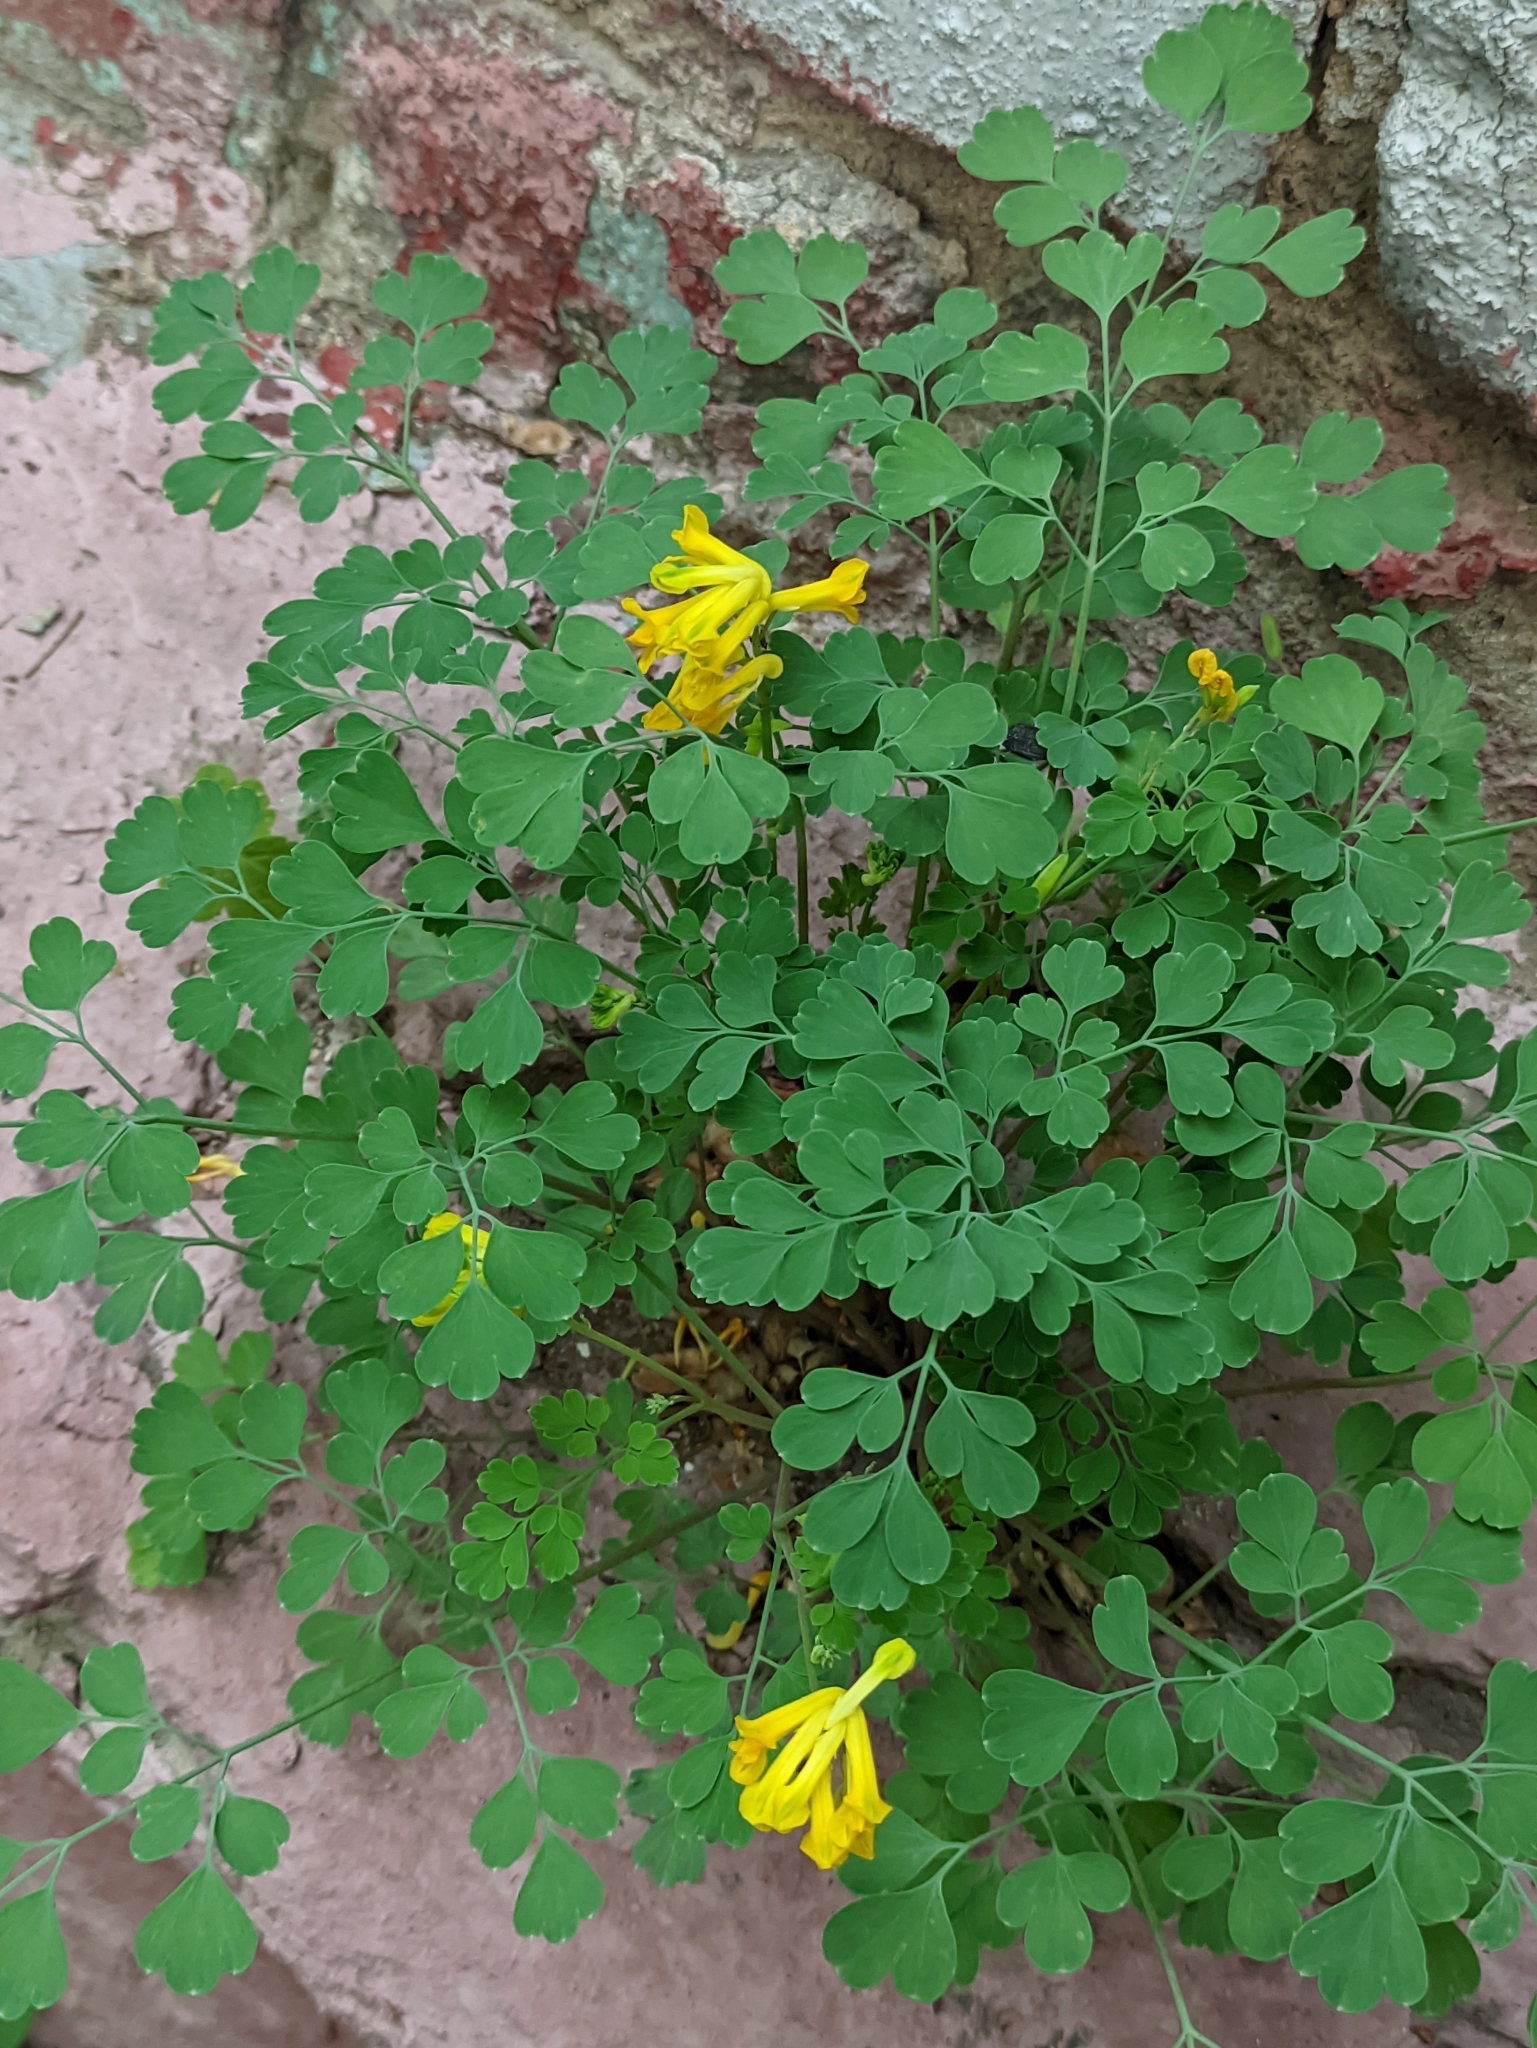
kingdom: Plantae
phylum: Tracheophyta
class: Magnoliopsida
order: Ranunculales
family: Papaveraceae
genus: Pseudofumaria
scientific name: Pseudofumaria lutea
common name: Yellow corydalis
